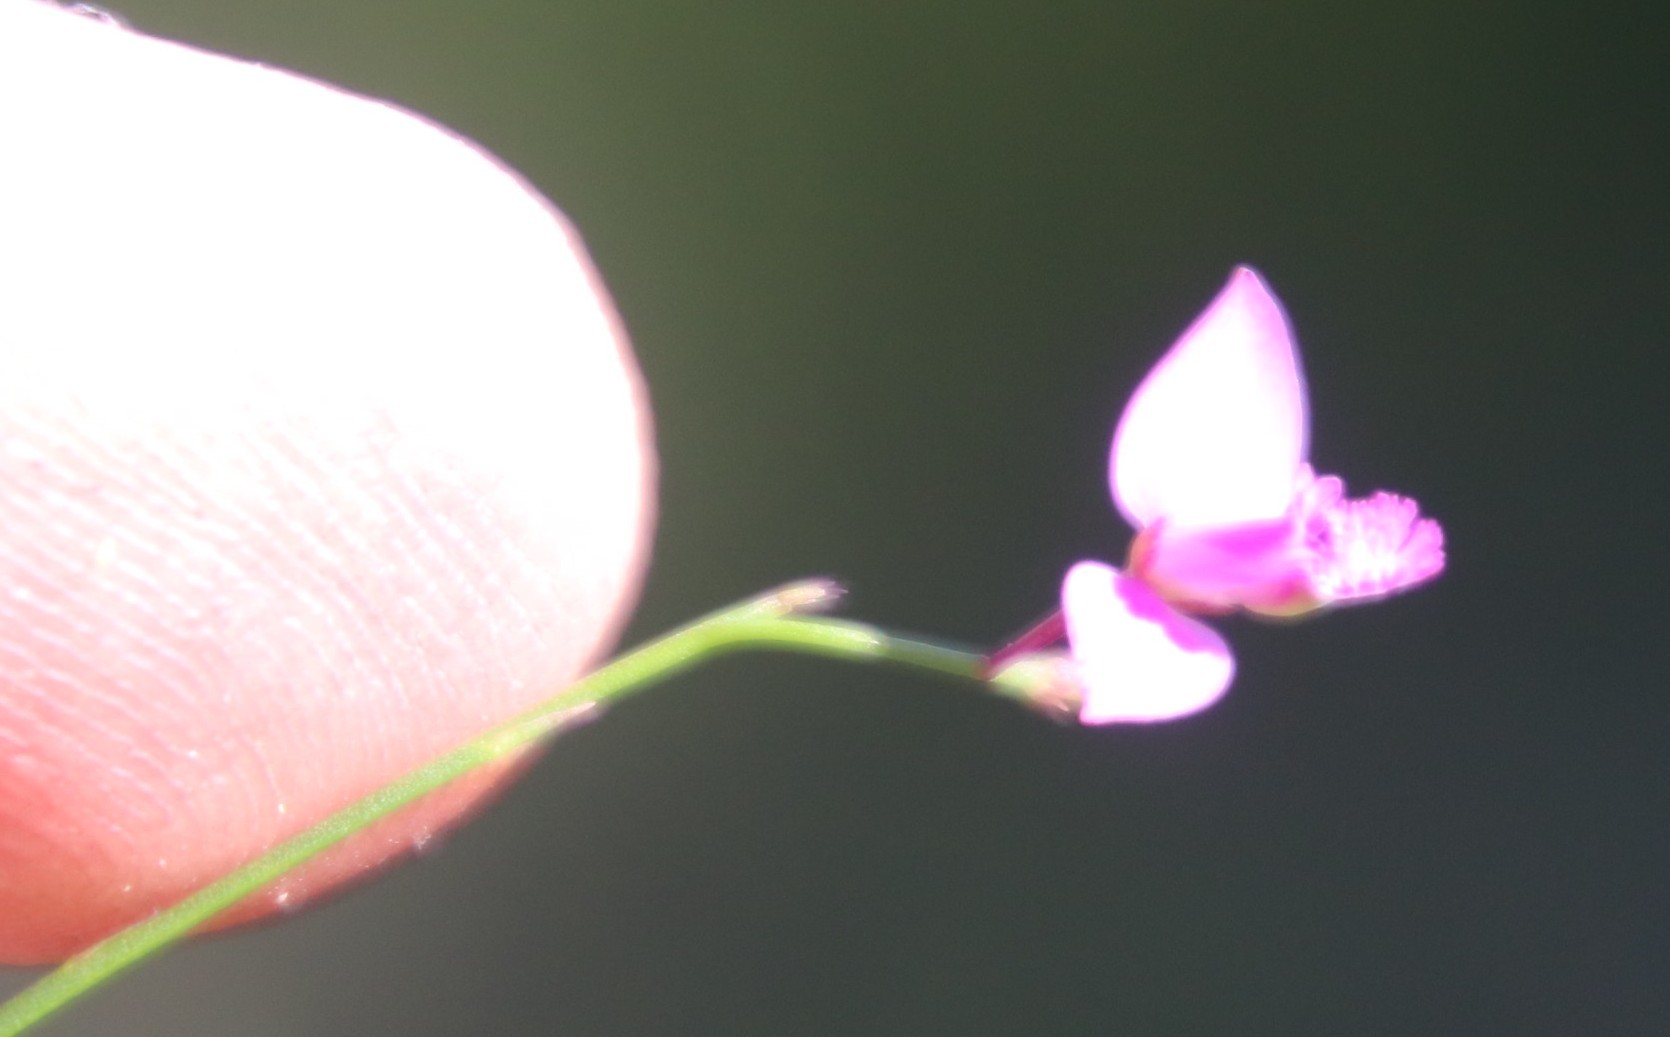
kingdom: Plantae
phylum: Tracheophyta
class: Magnoliopsida
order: Fabales
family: Polygalaceae
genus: Polygala
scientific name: Polygala nematocaulis
